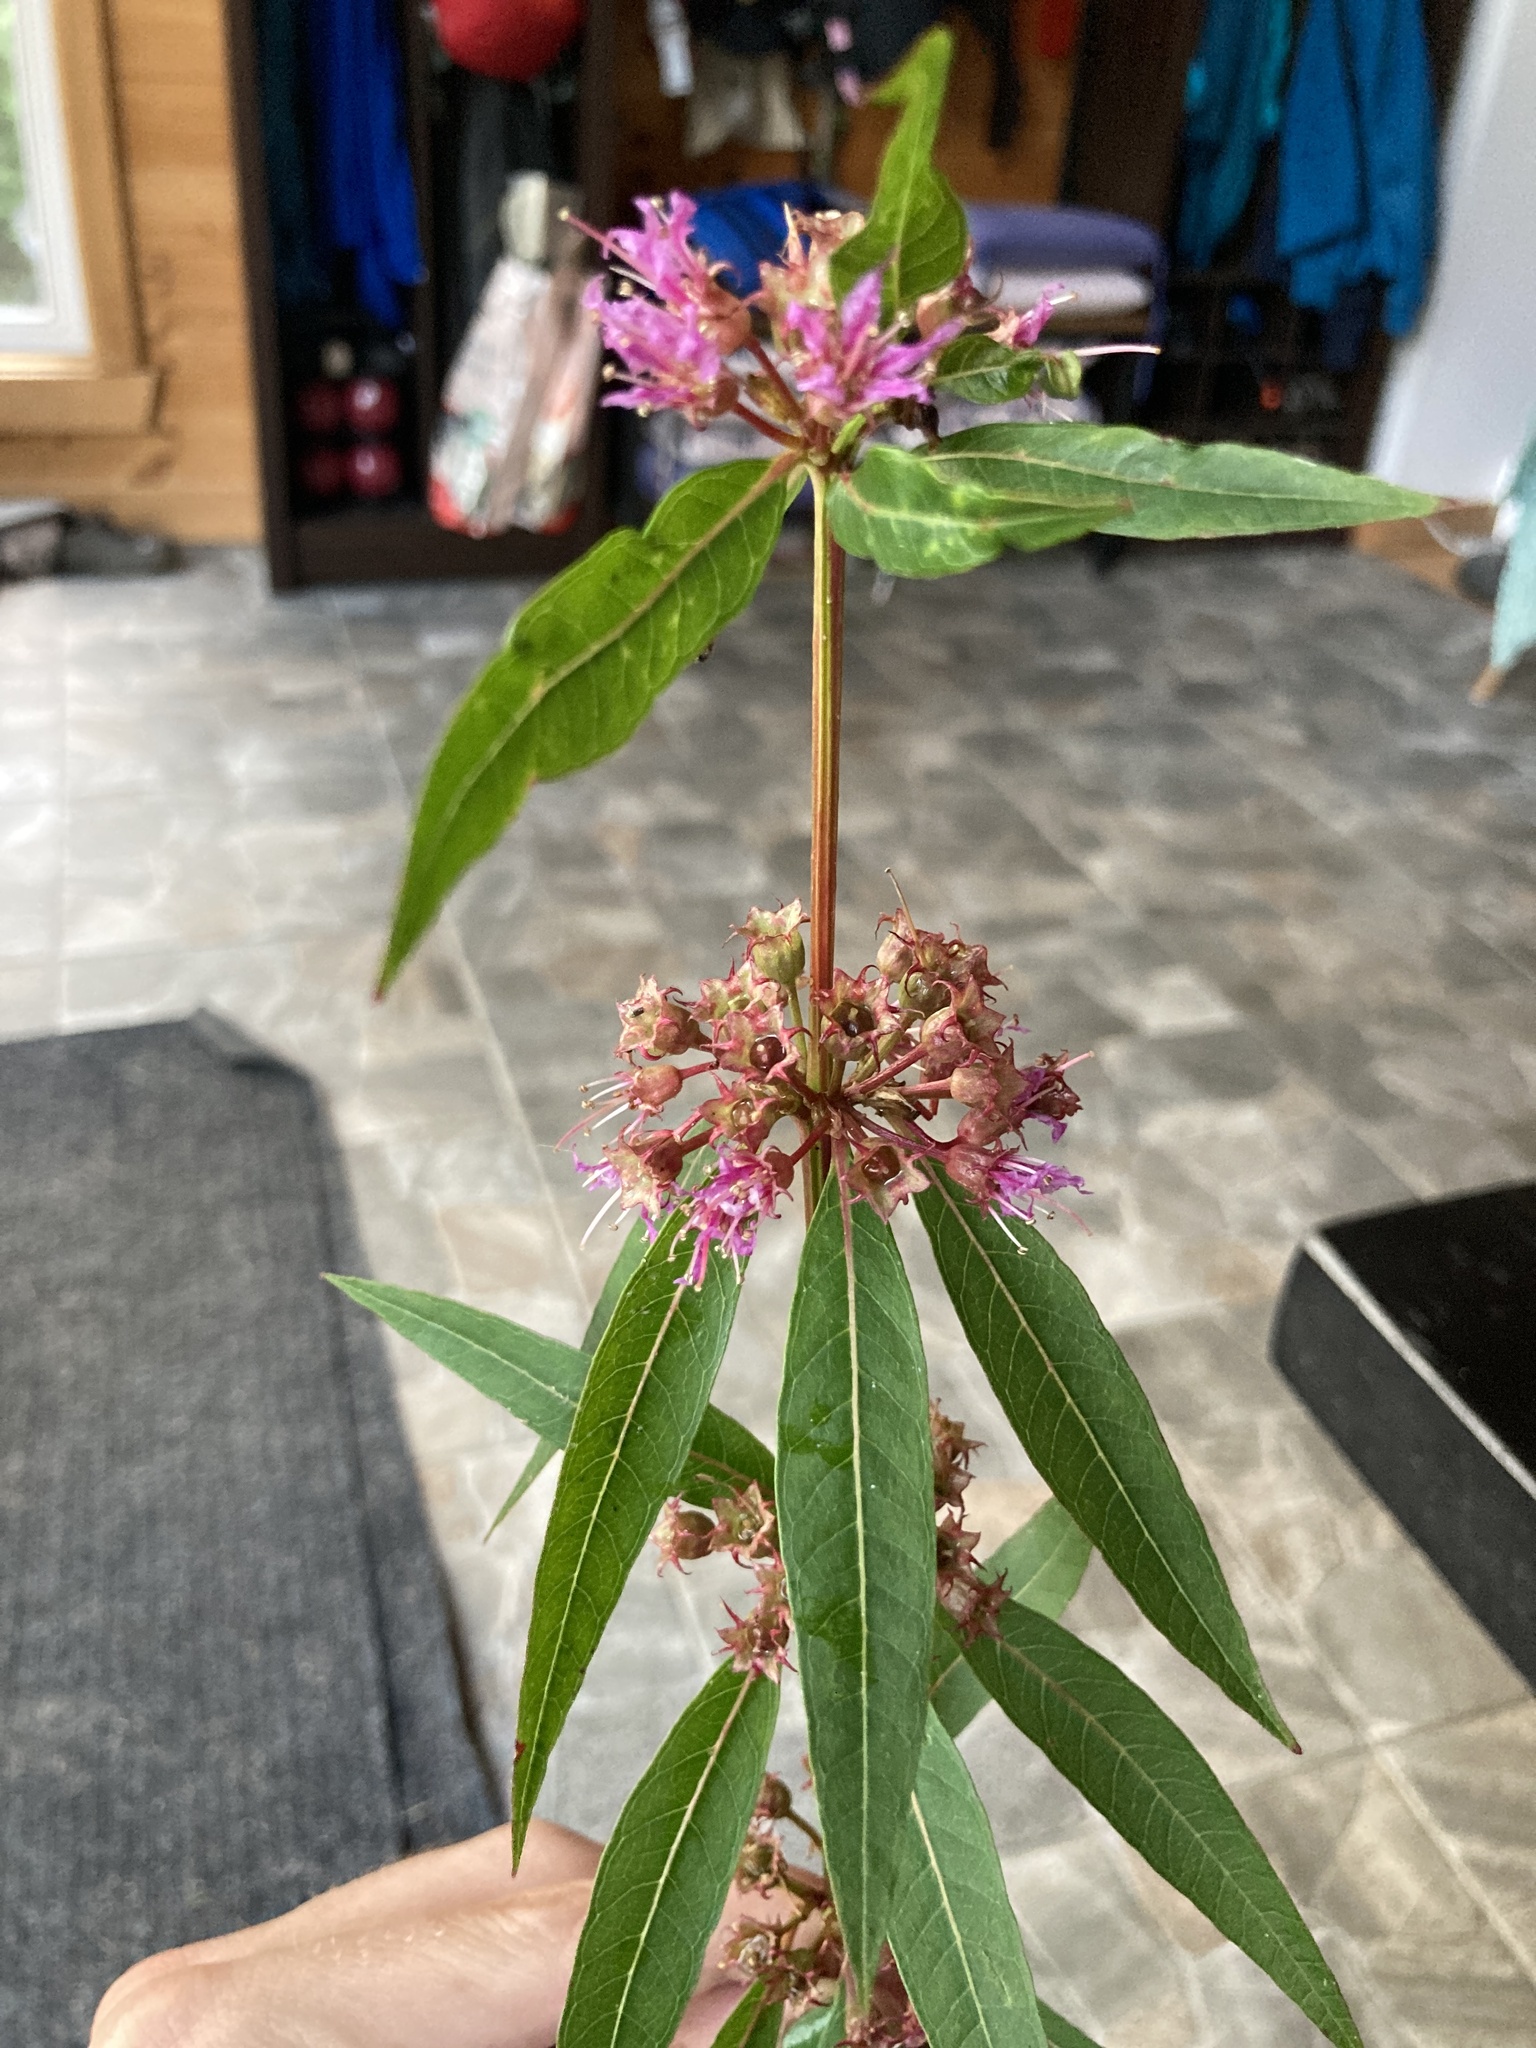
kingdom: Plantae
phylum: Tracheophyta
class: Magnoliopsida
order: Myrtales
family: Lythraceae
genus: Decodon
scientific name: Decodon verticillatus
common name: Hairy swamp loosestrife
